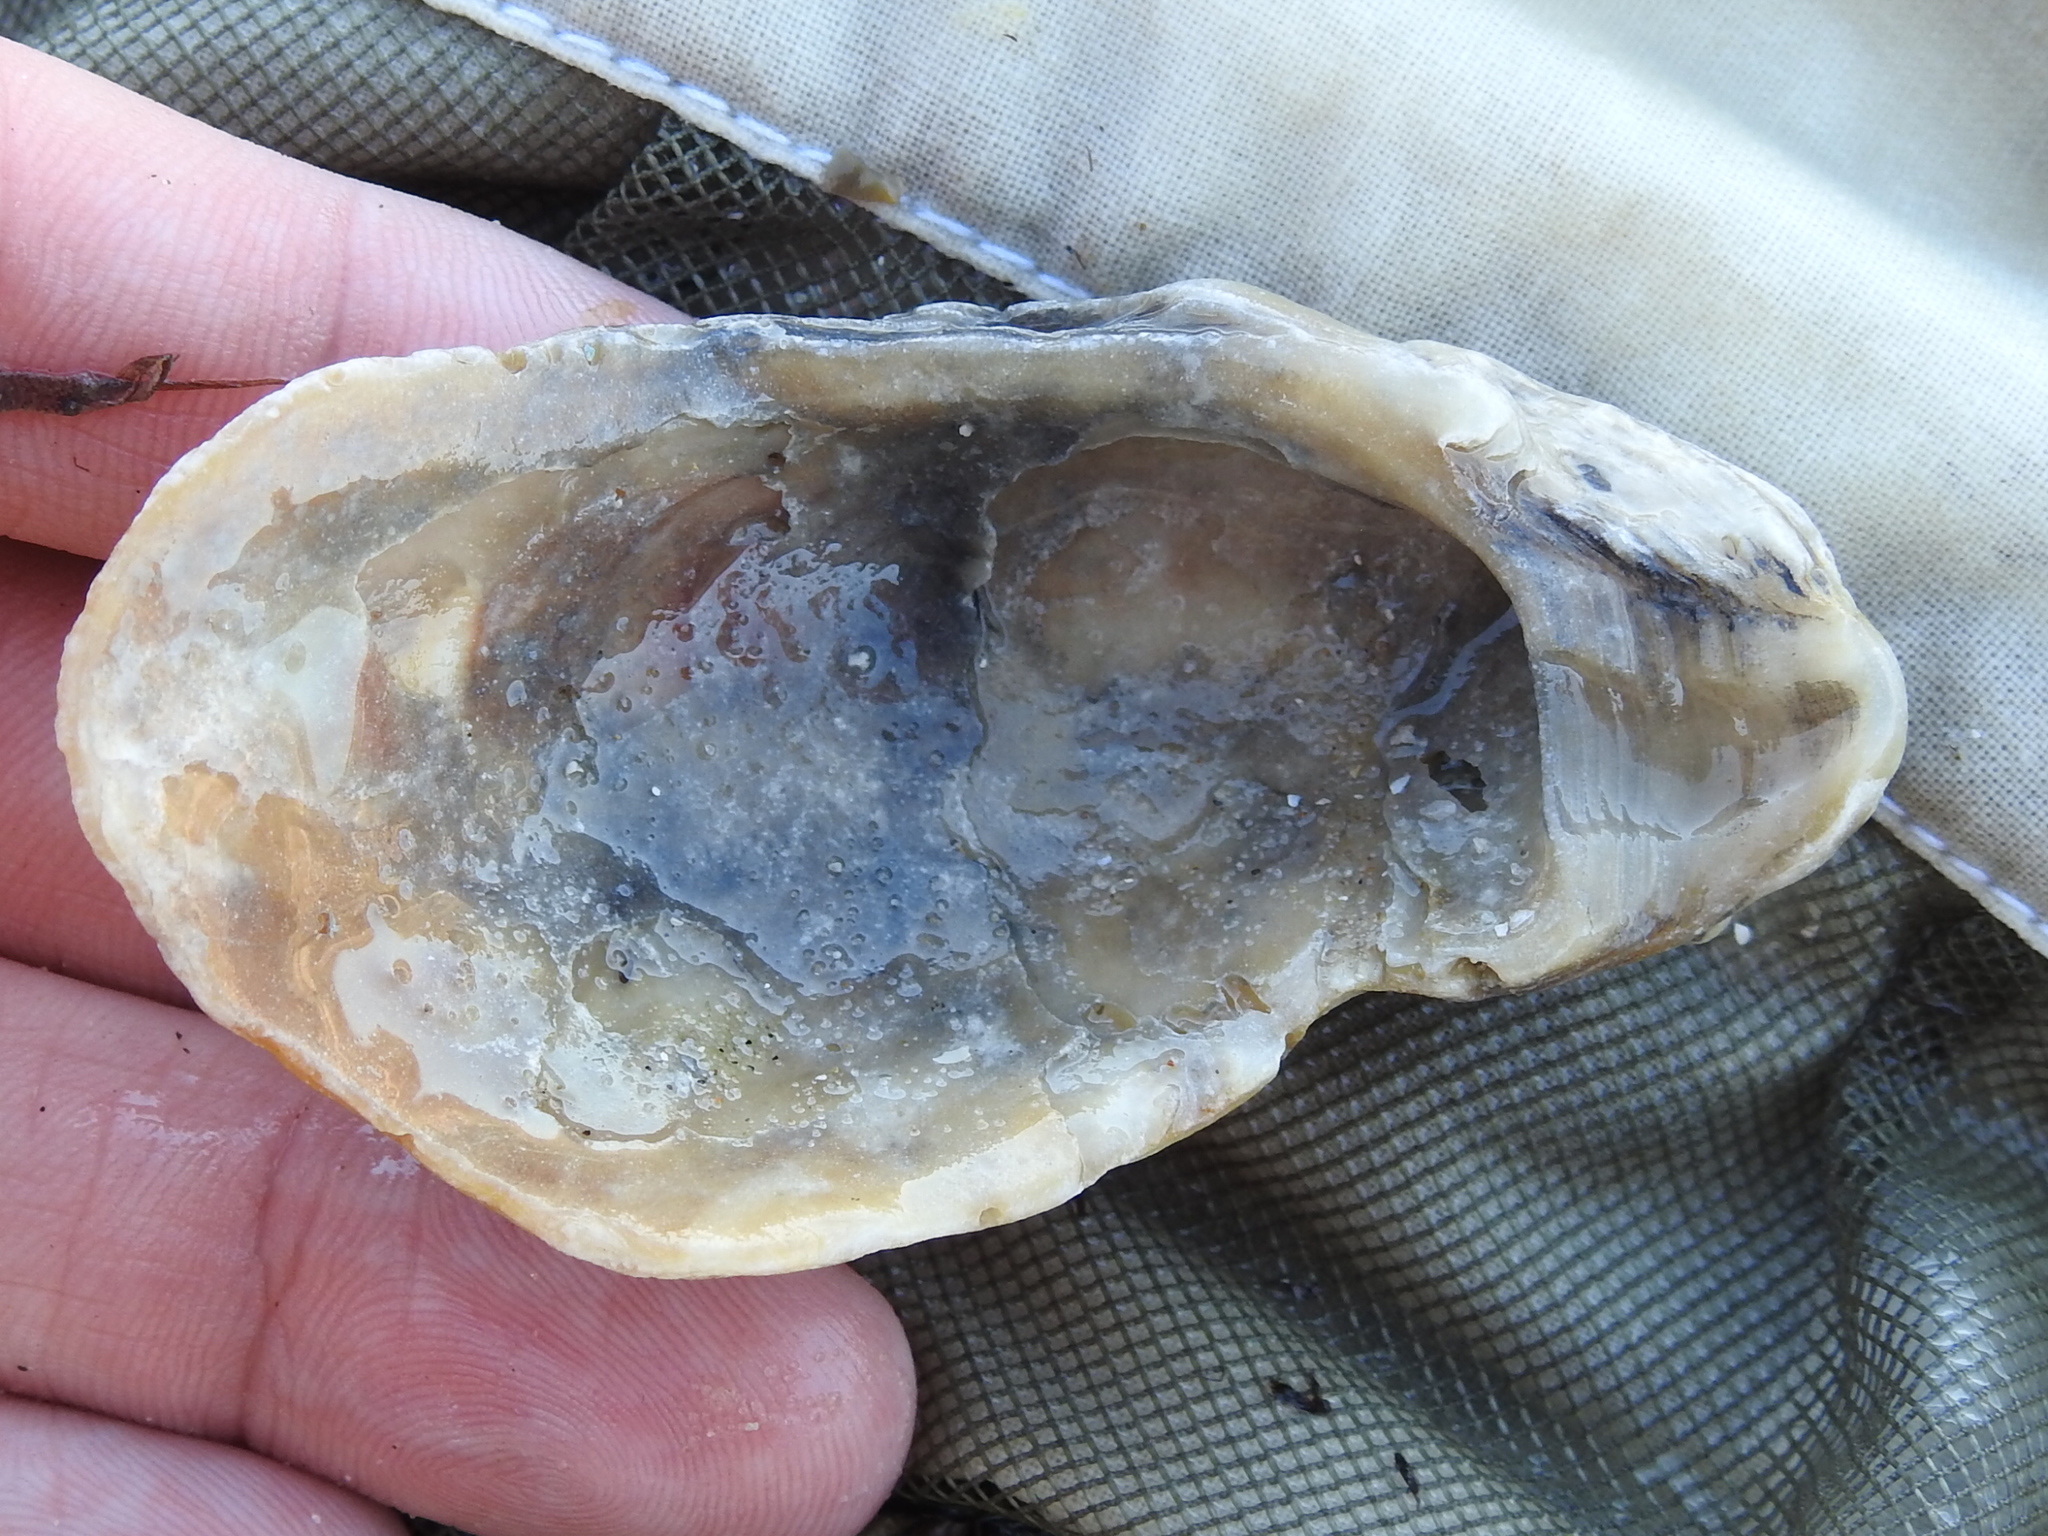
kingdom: Animalia
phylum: Mollusca
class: Bivalvia
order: Ostreida
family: Ostreidae
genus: Crassostrea
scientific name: Crassostrea virginica
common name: American oyster
